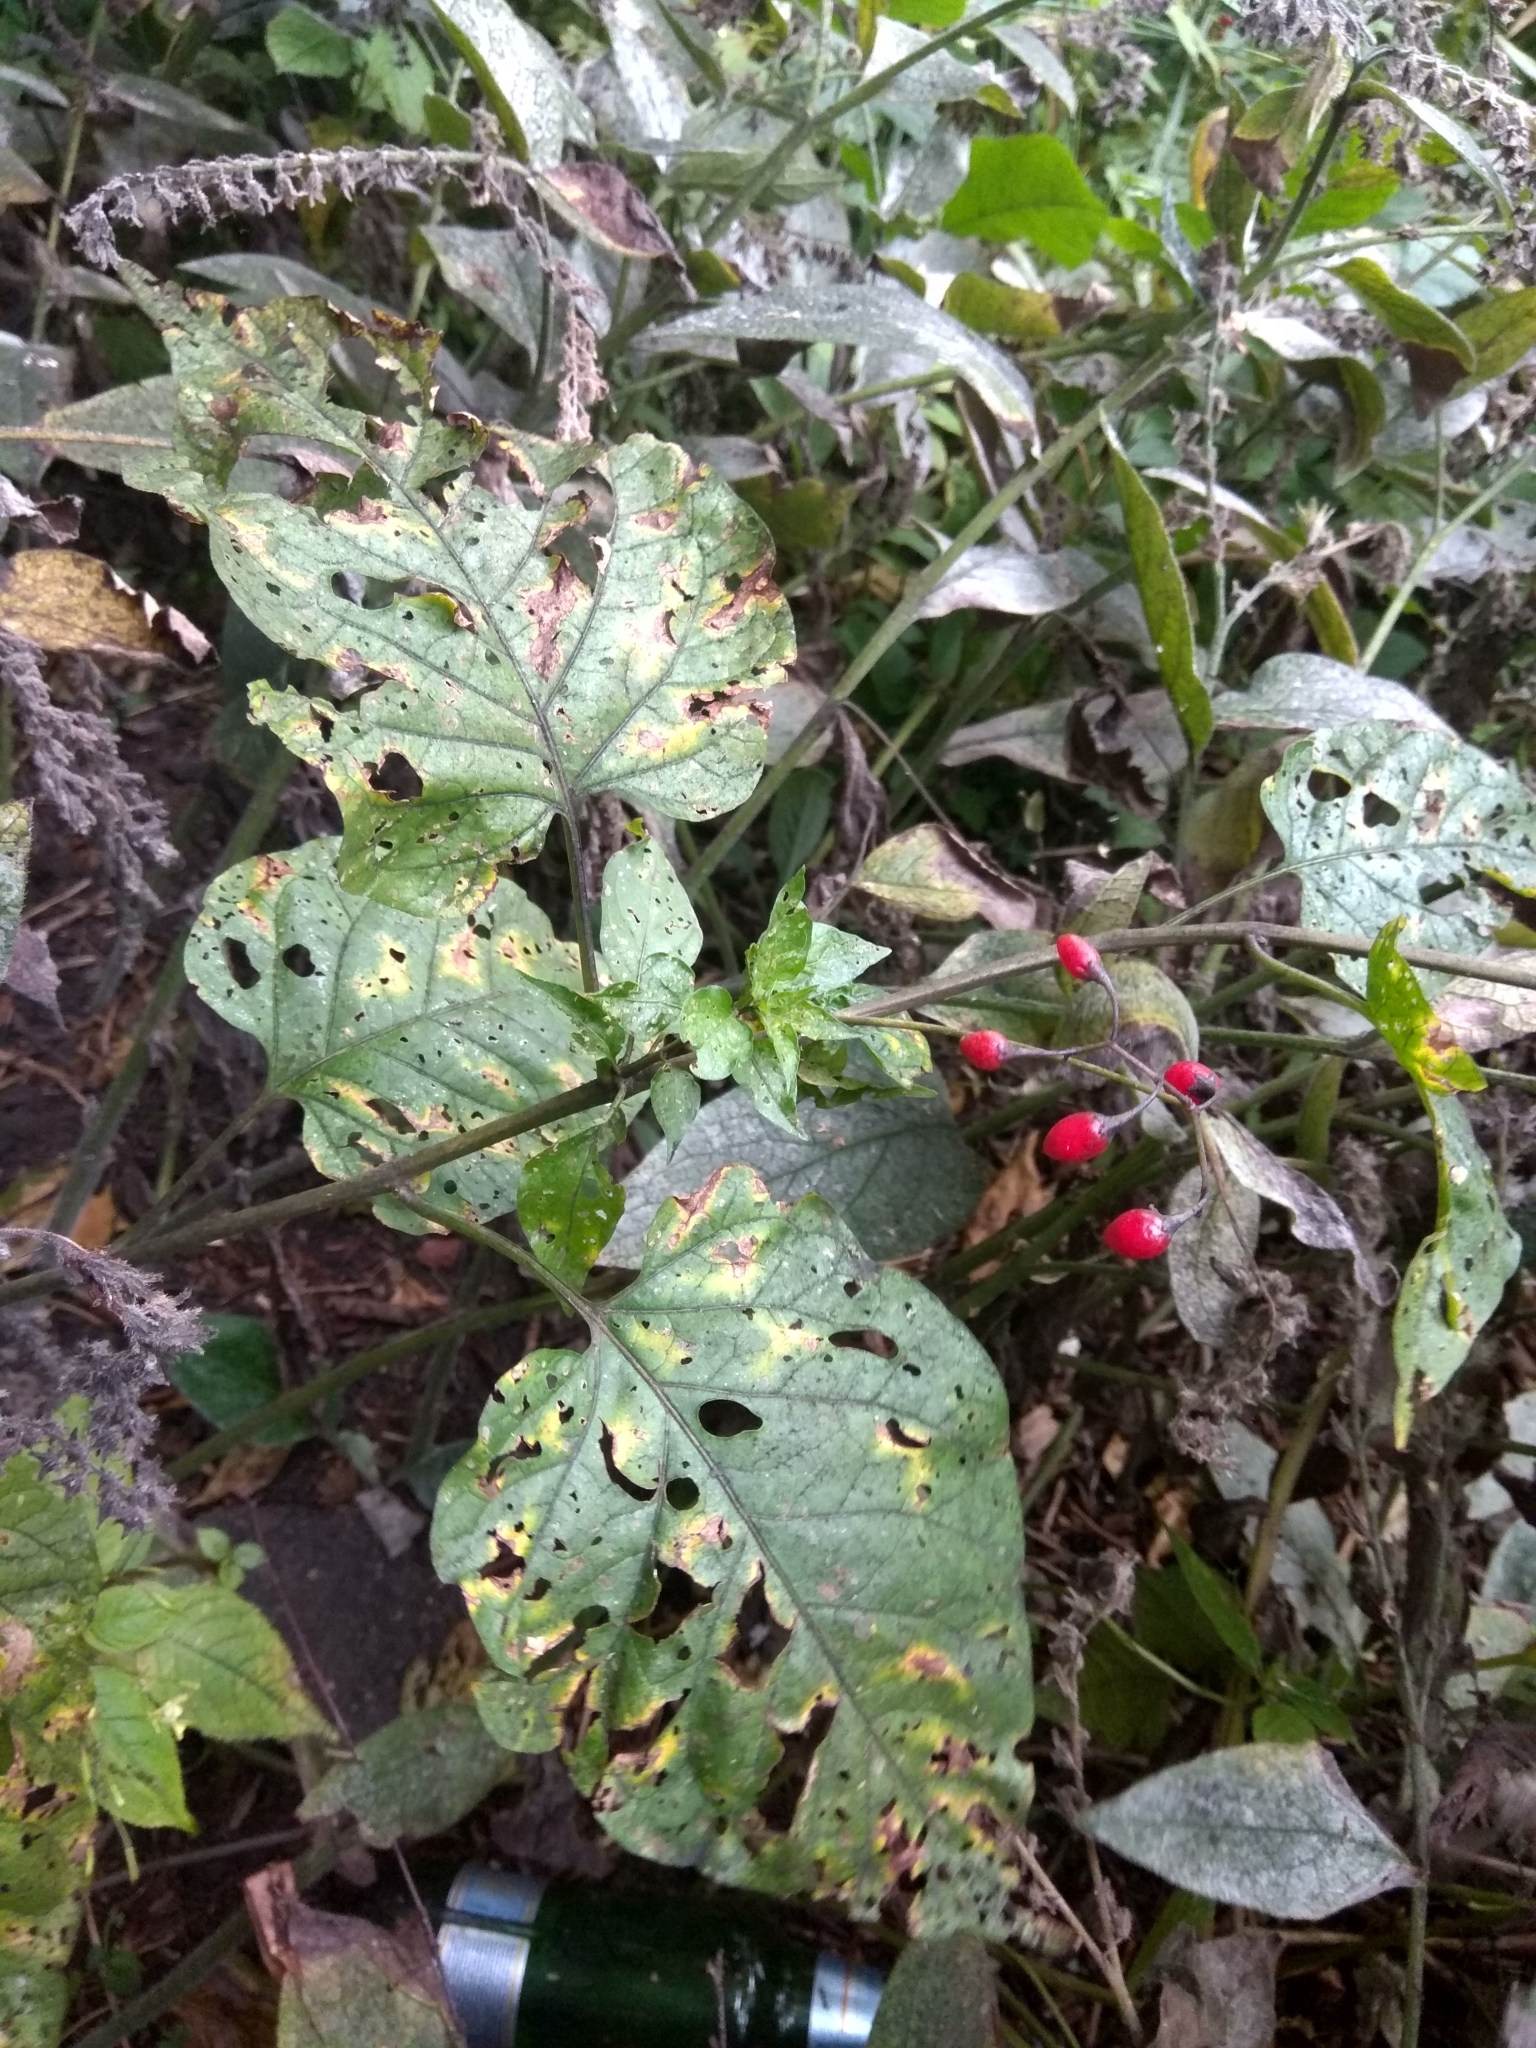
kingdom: Plantae
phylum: Tracheophyta
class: Magnoliopsida
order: Solanales
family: Solanaceae
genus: Solanum
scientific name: Solanum dulcamara
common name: Climbing nightshade
